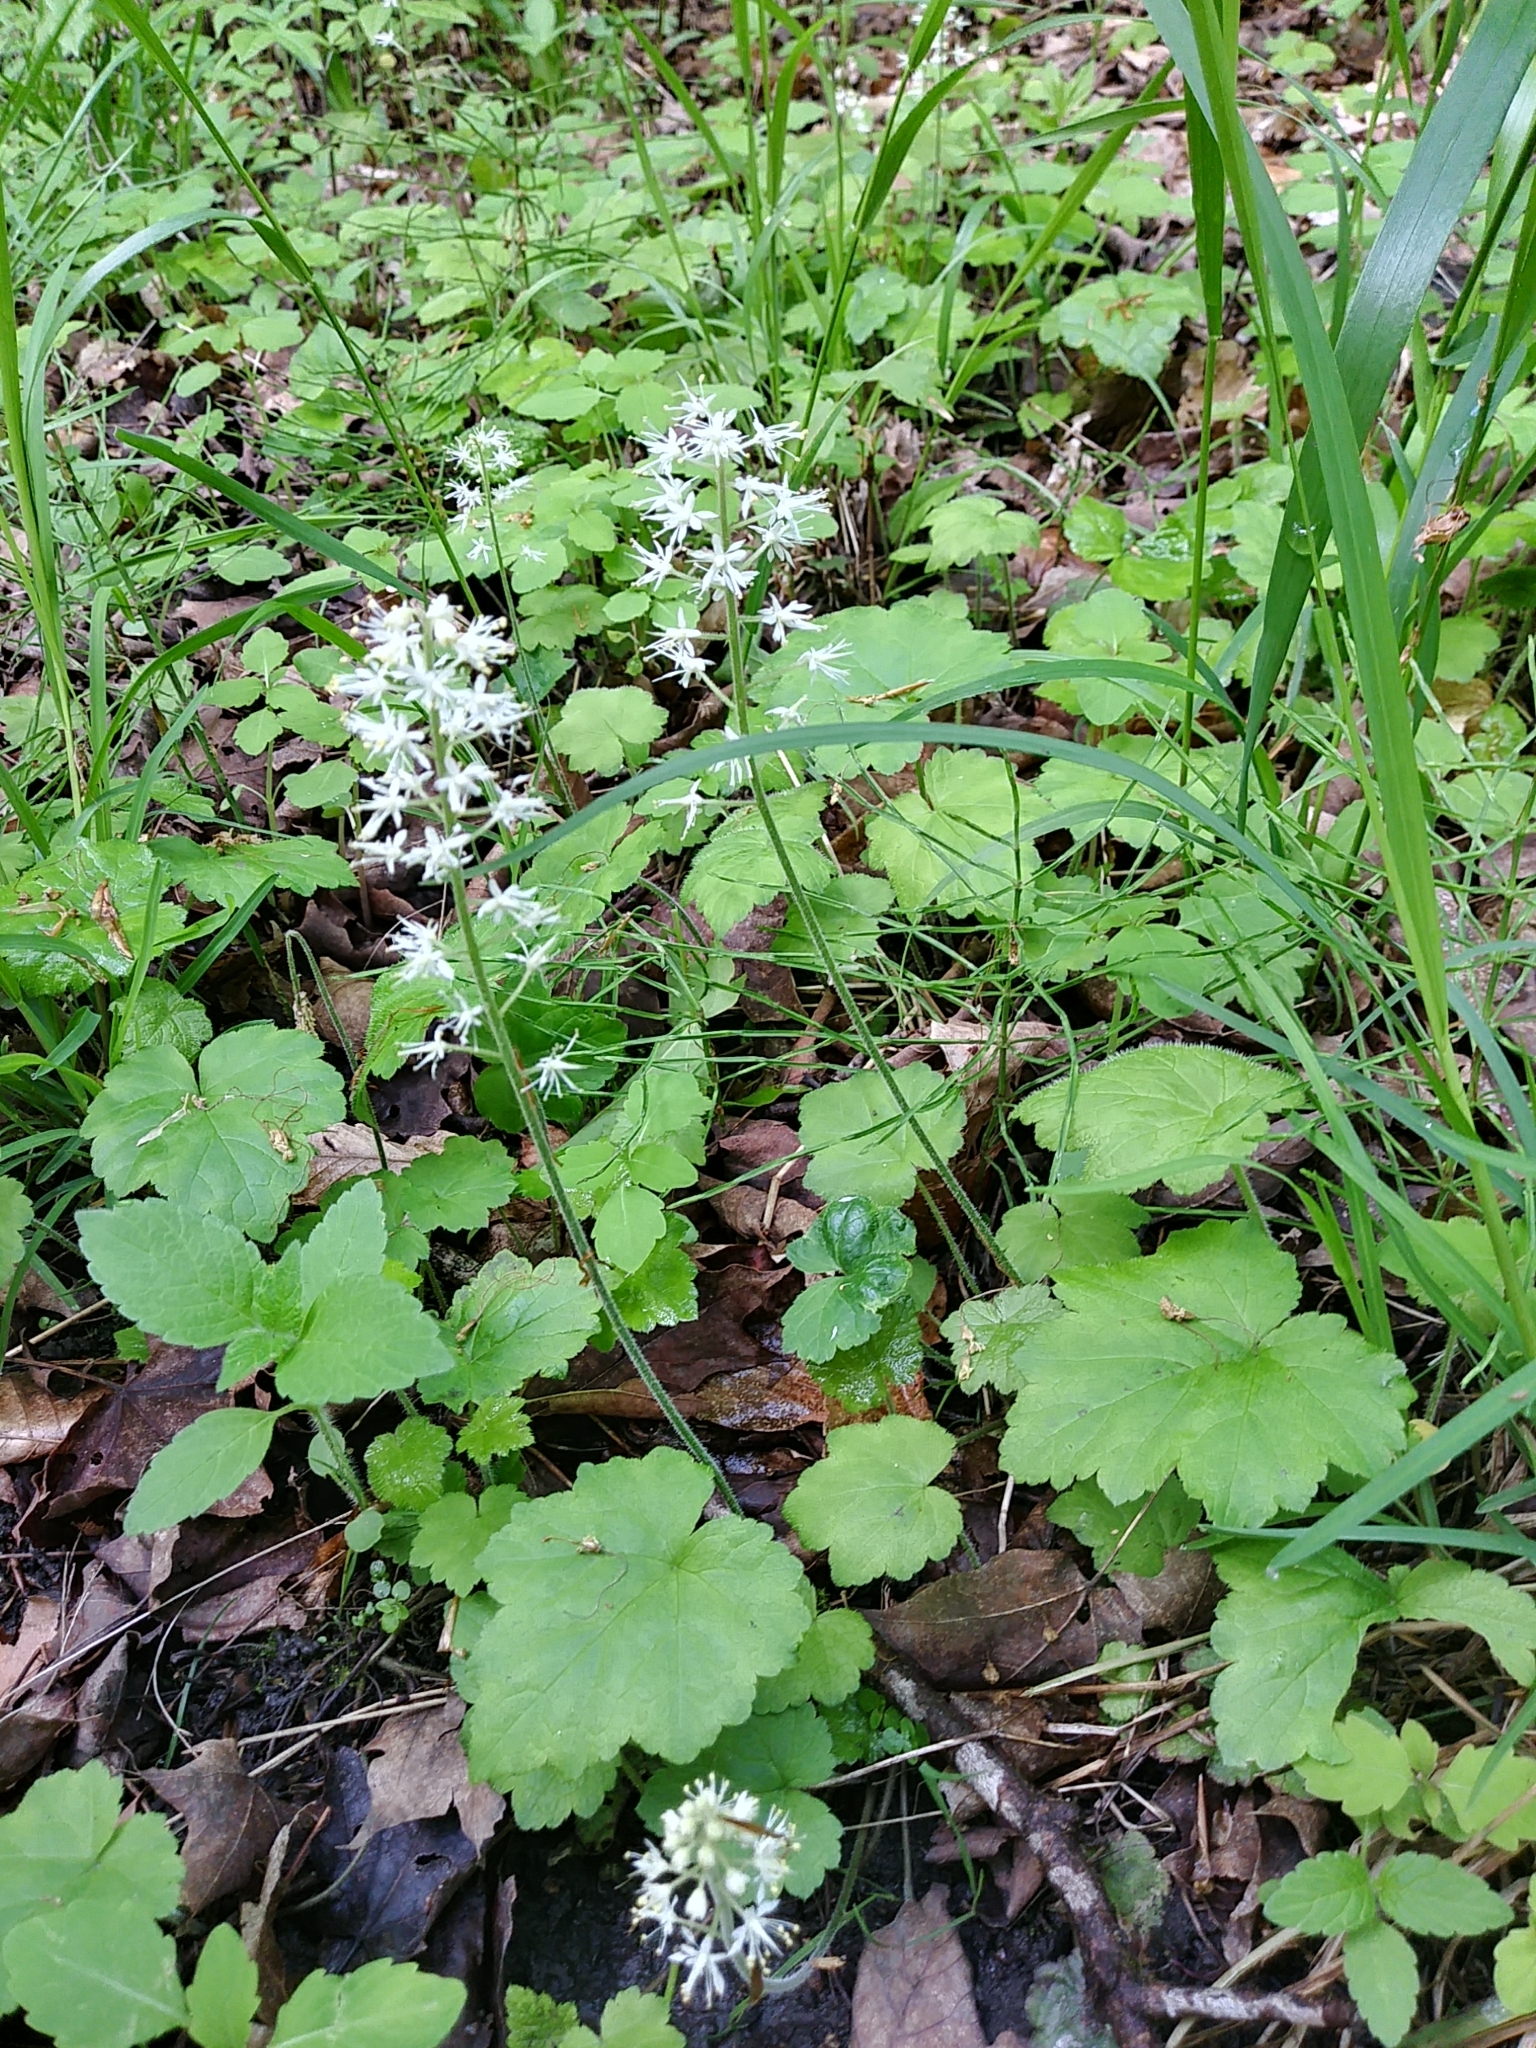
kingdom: Plantae
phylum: Tracheophyta
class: Magnoliopsida
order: Saxifragales
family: Saxifragaceae
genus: Tiarella
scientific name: Tiarella stolonifera
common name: Stoloniferous foamflower
